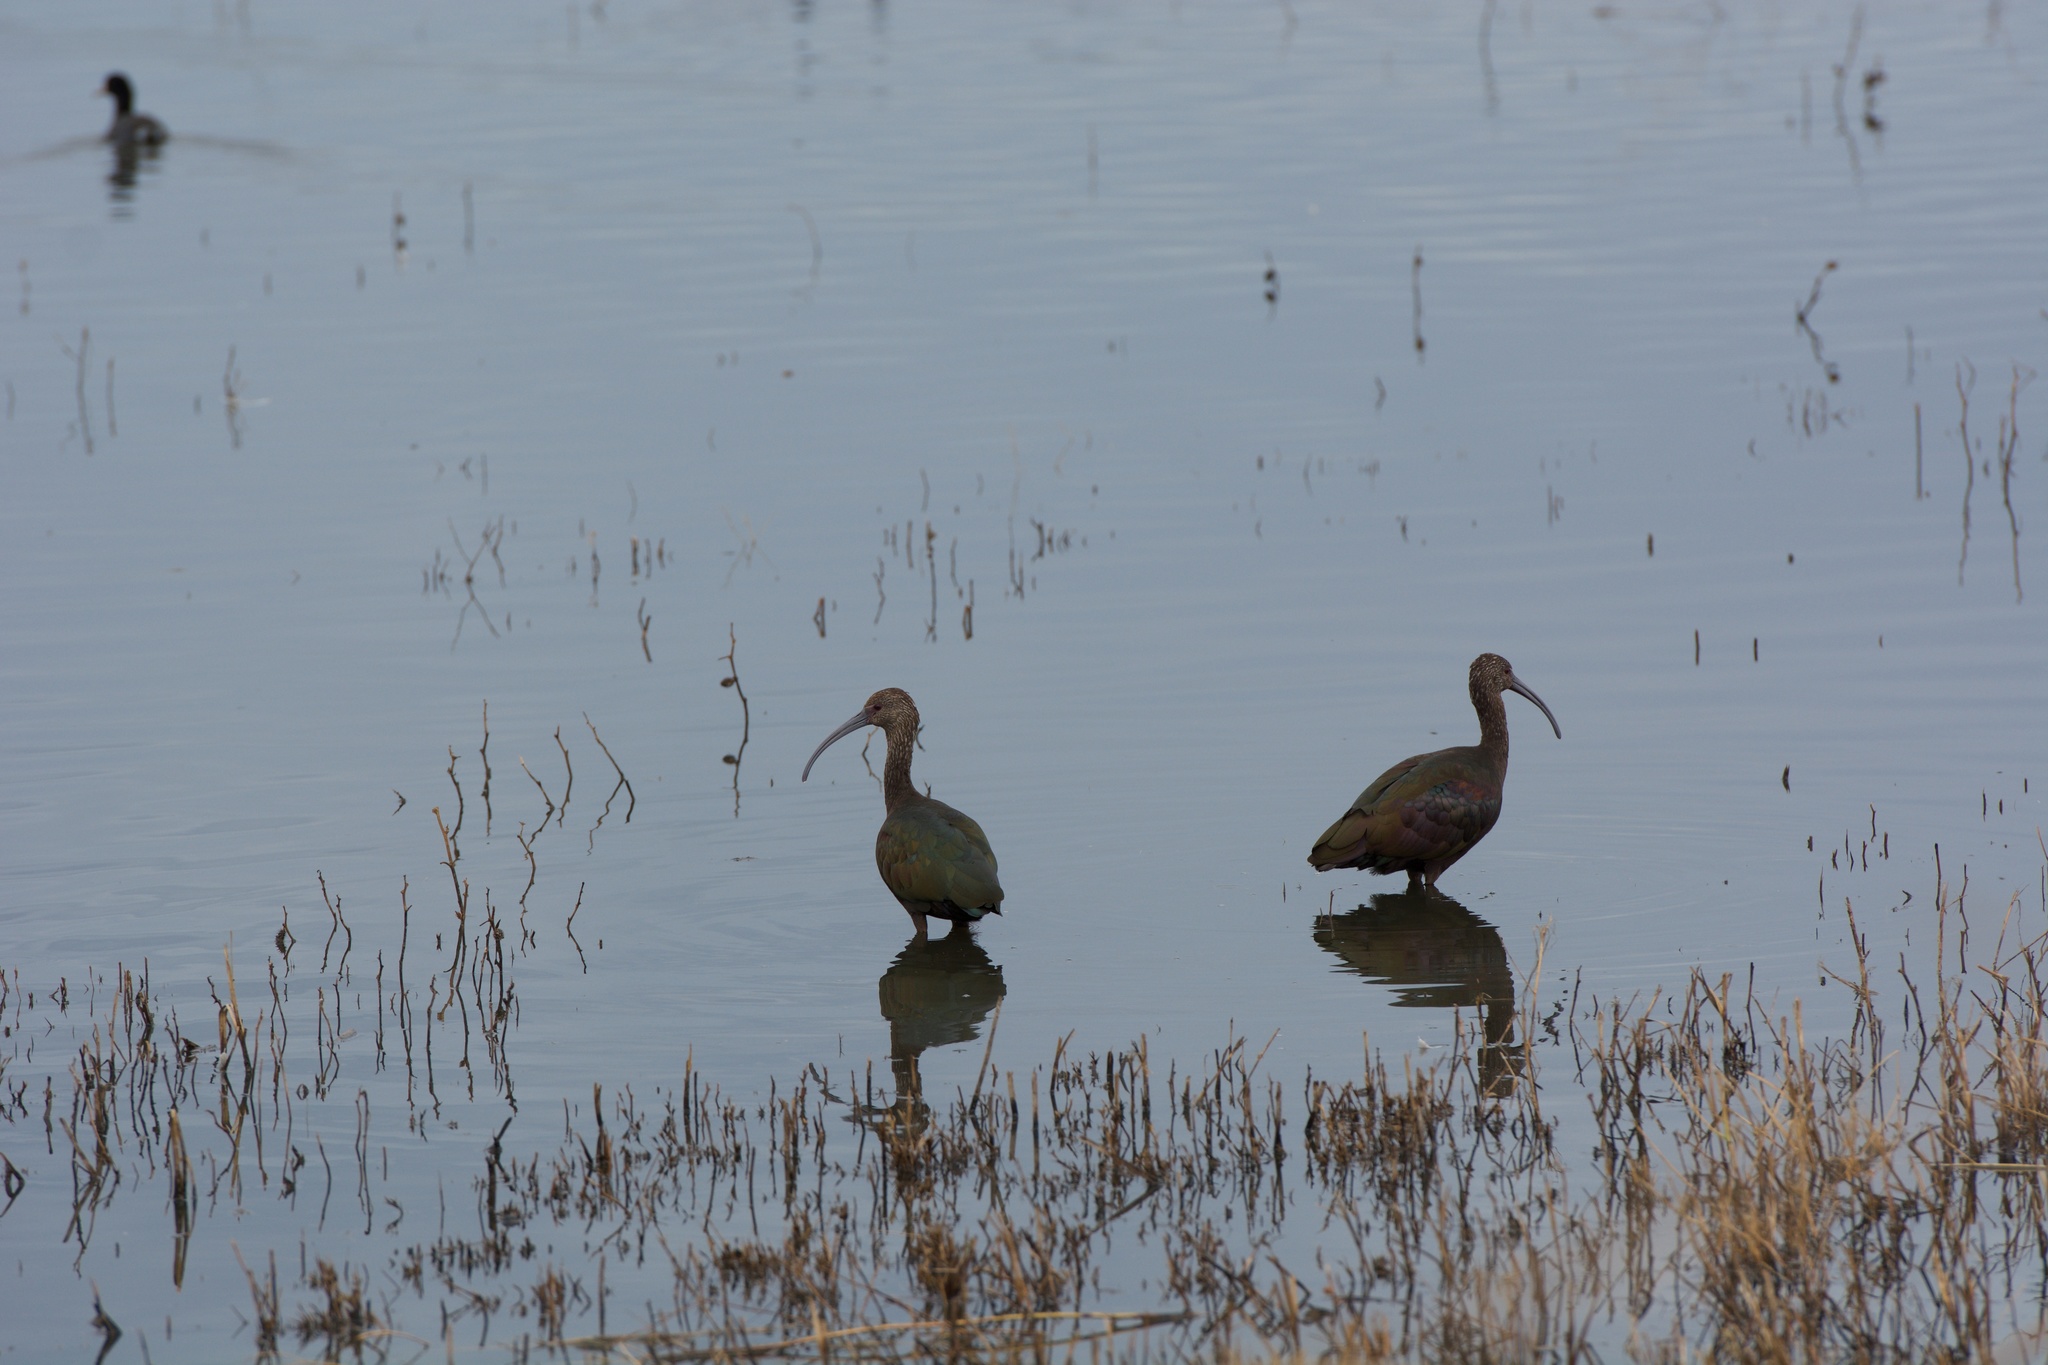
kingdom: Animalia
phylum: Chordata
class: Aves
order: Pelecaniformes
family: Threskiornithidae
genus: Plegadis
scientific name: Plegadis chihi
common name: White-faced ibis
